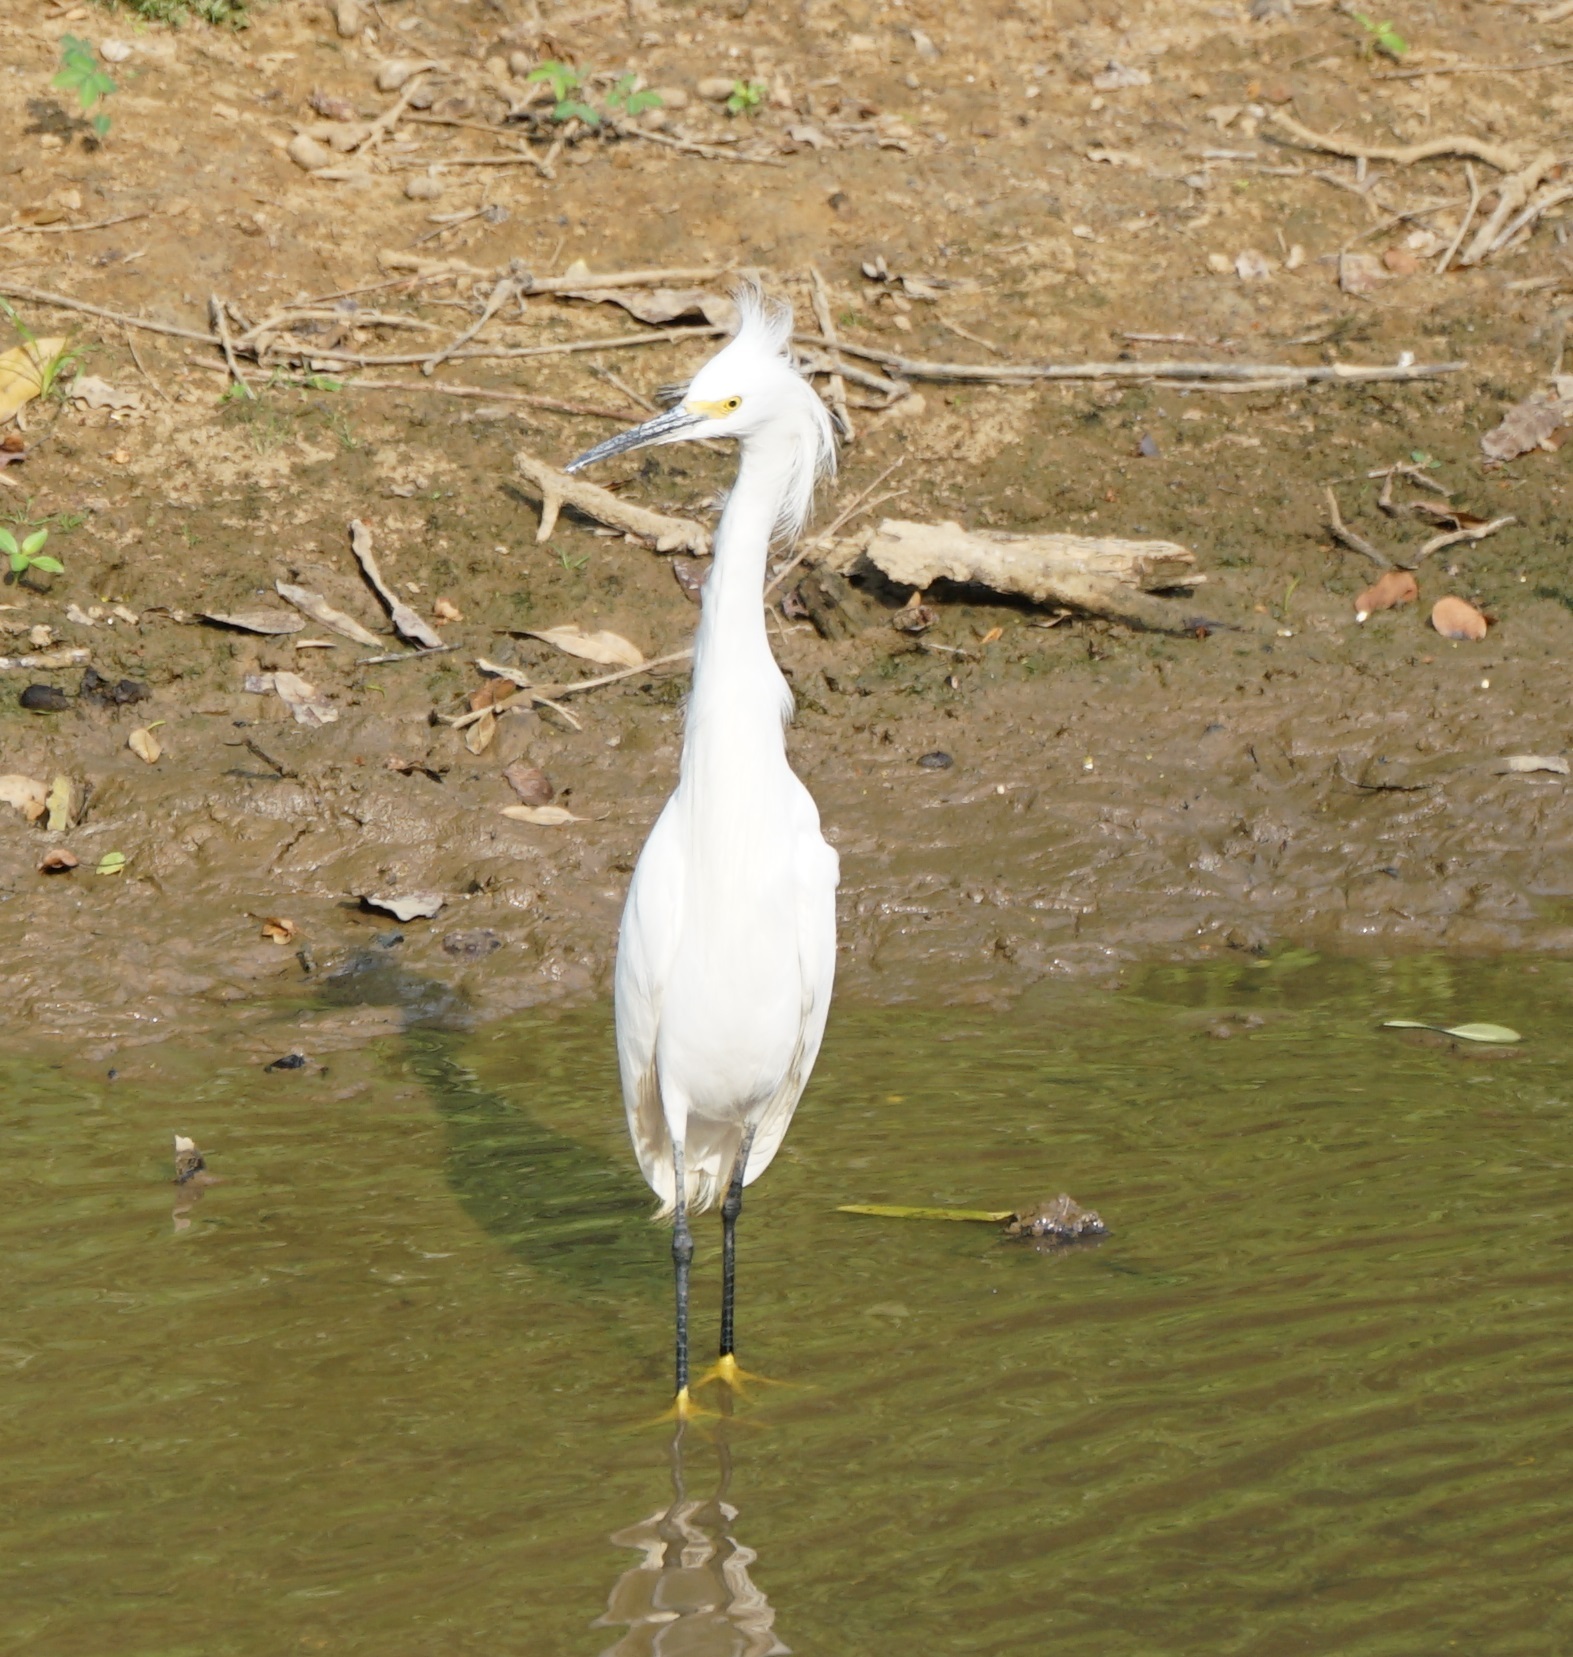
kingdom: Animalia
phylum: Chordata
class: Aves
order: Pelecaniformes
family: Ardeidae
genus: Egretta
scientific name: Egretta thula
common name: Snowy egret
